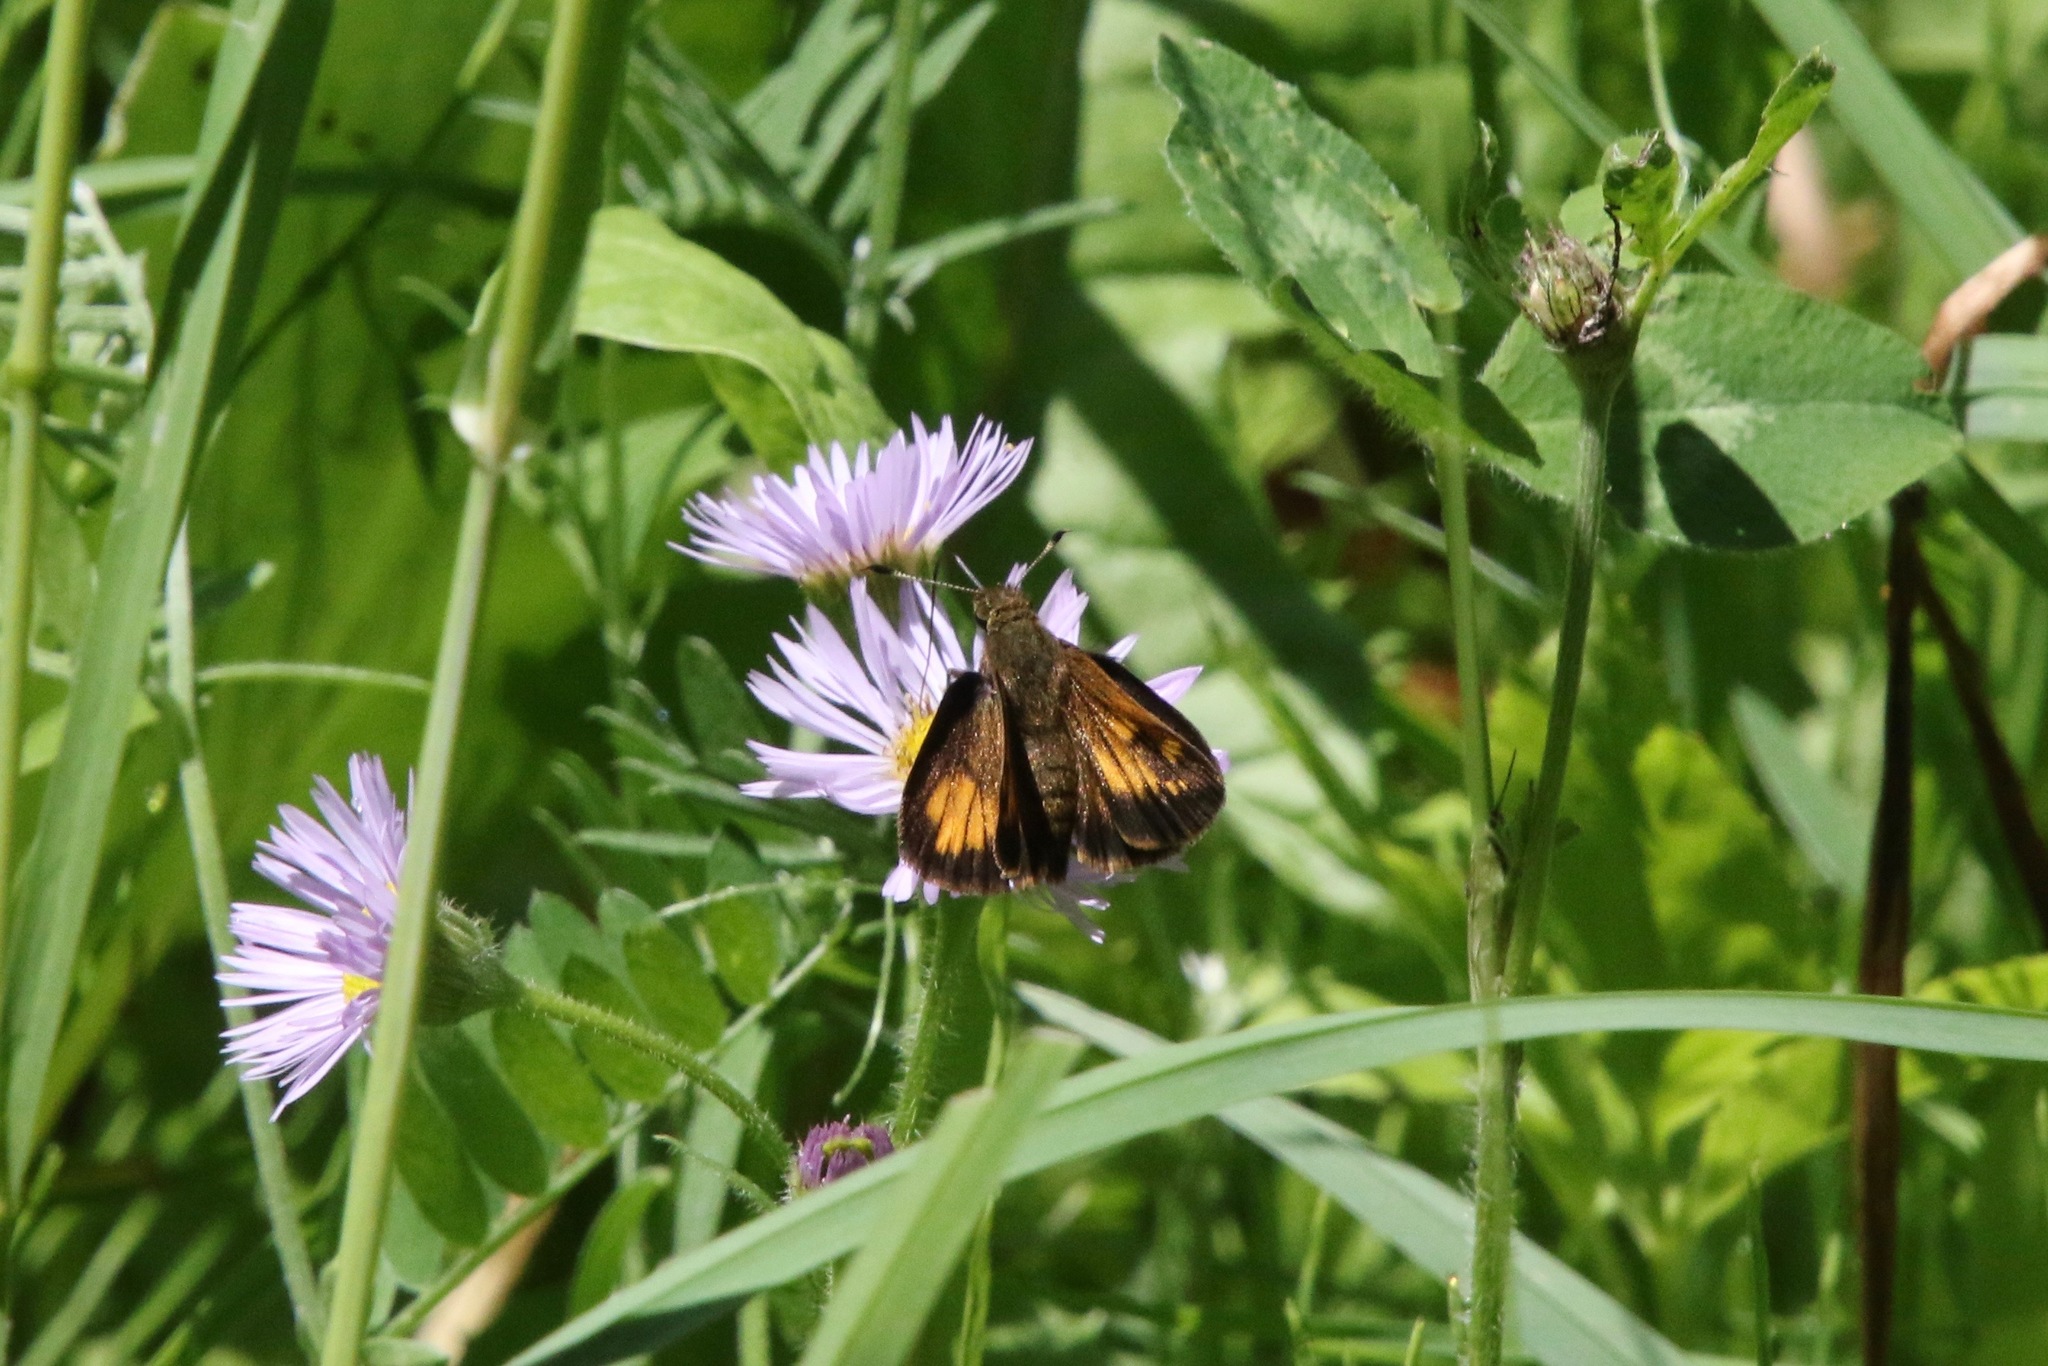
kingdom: Animalia
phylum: Arthropoda
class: Insecta
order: Lepidoptera
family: Hesperiidae
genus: Lon
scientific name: Lon hobomok
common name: Hobomok skipper
